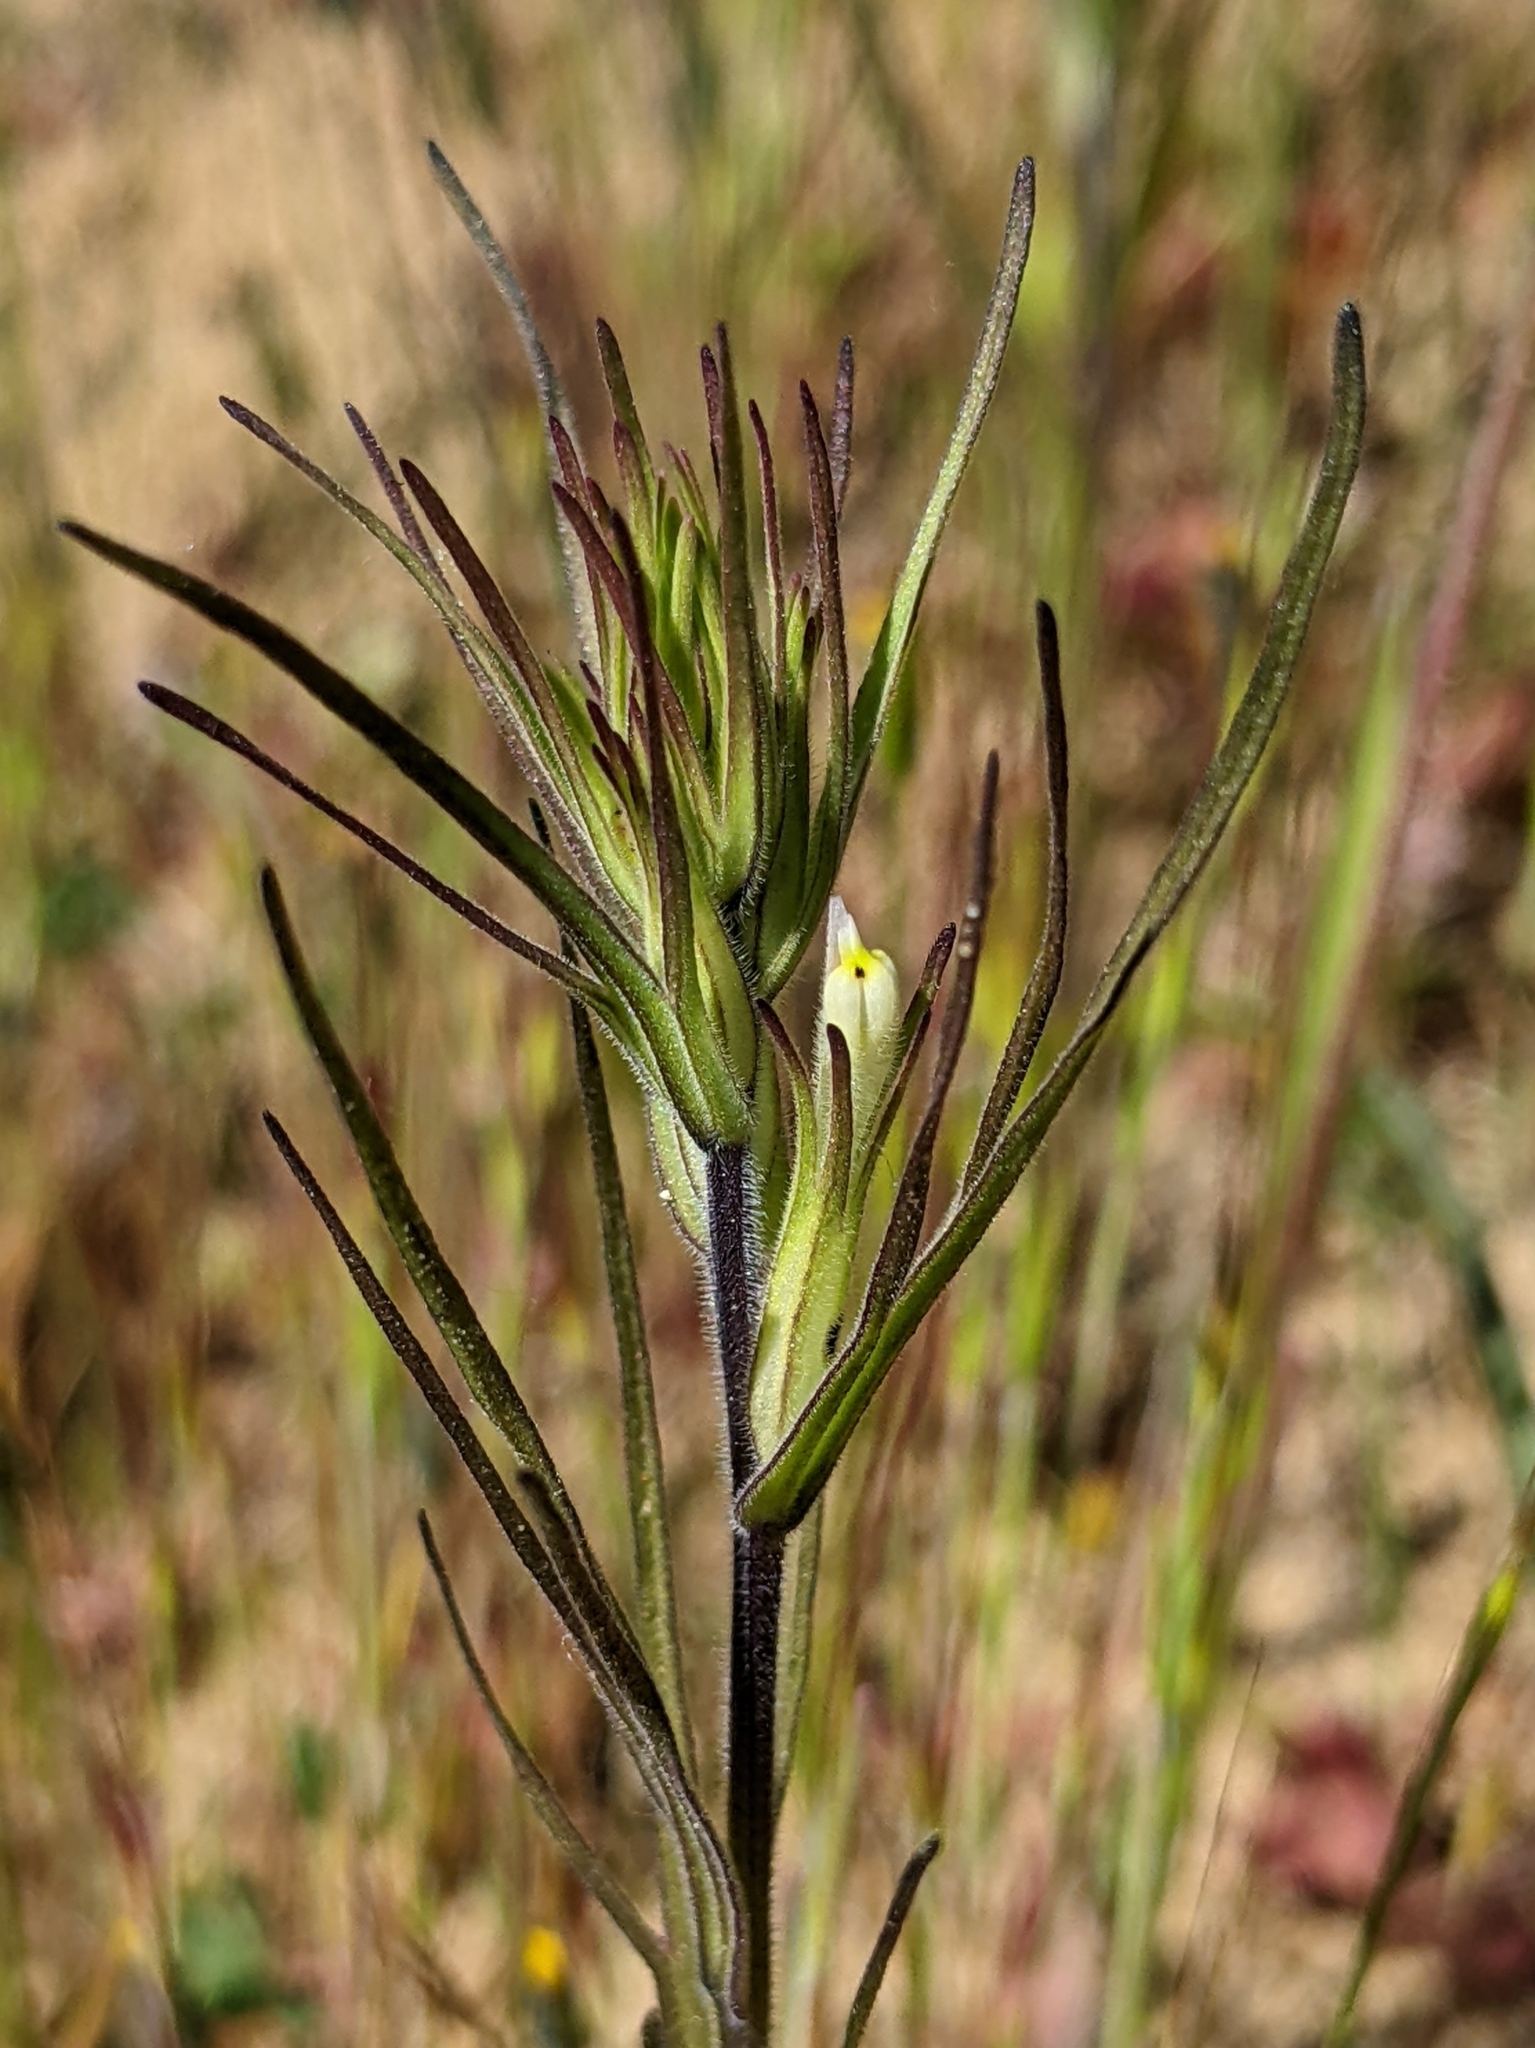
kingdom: Plantae
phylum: Tracheophyta
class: Magnoliopsida
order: Lamiales
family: Orobanchaceae
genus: Castilleja
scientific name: Castilleja attenuata
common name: Valley tassels
